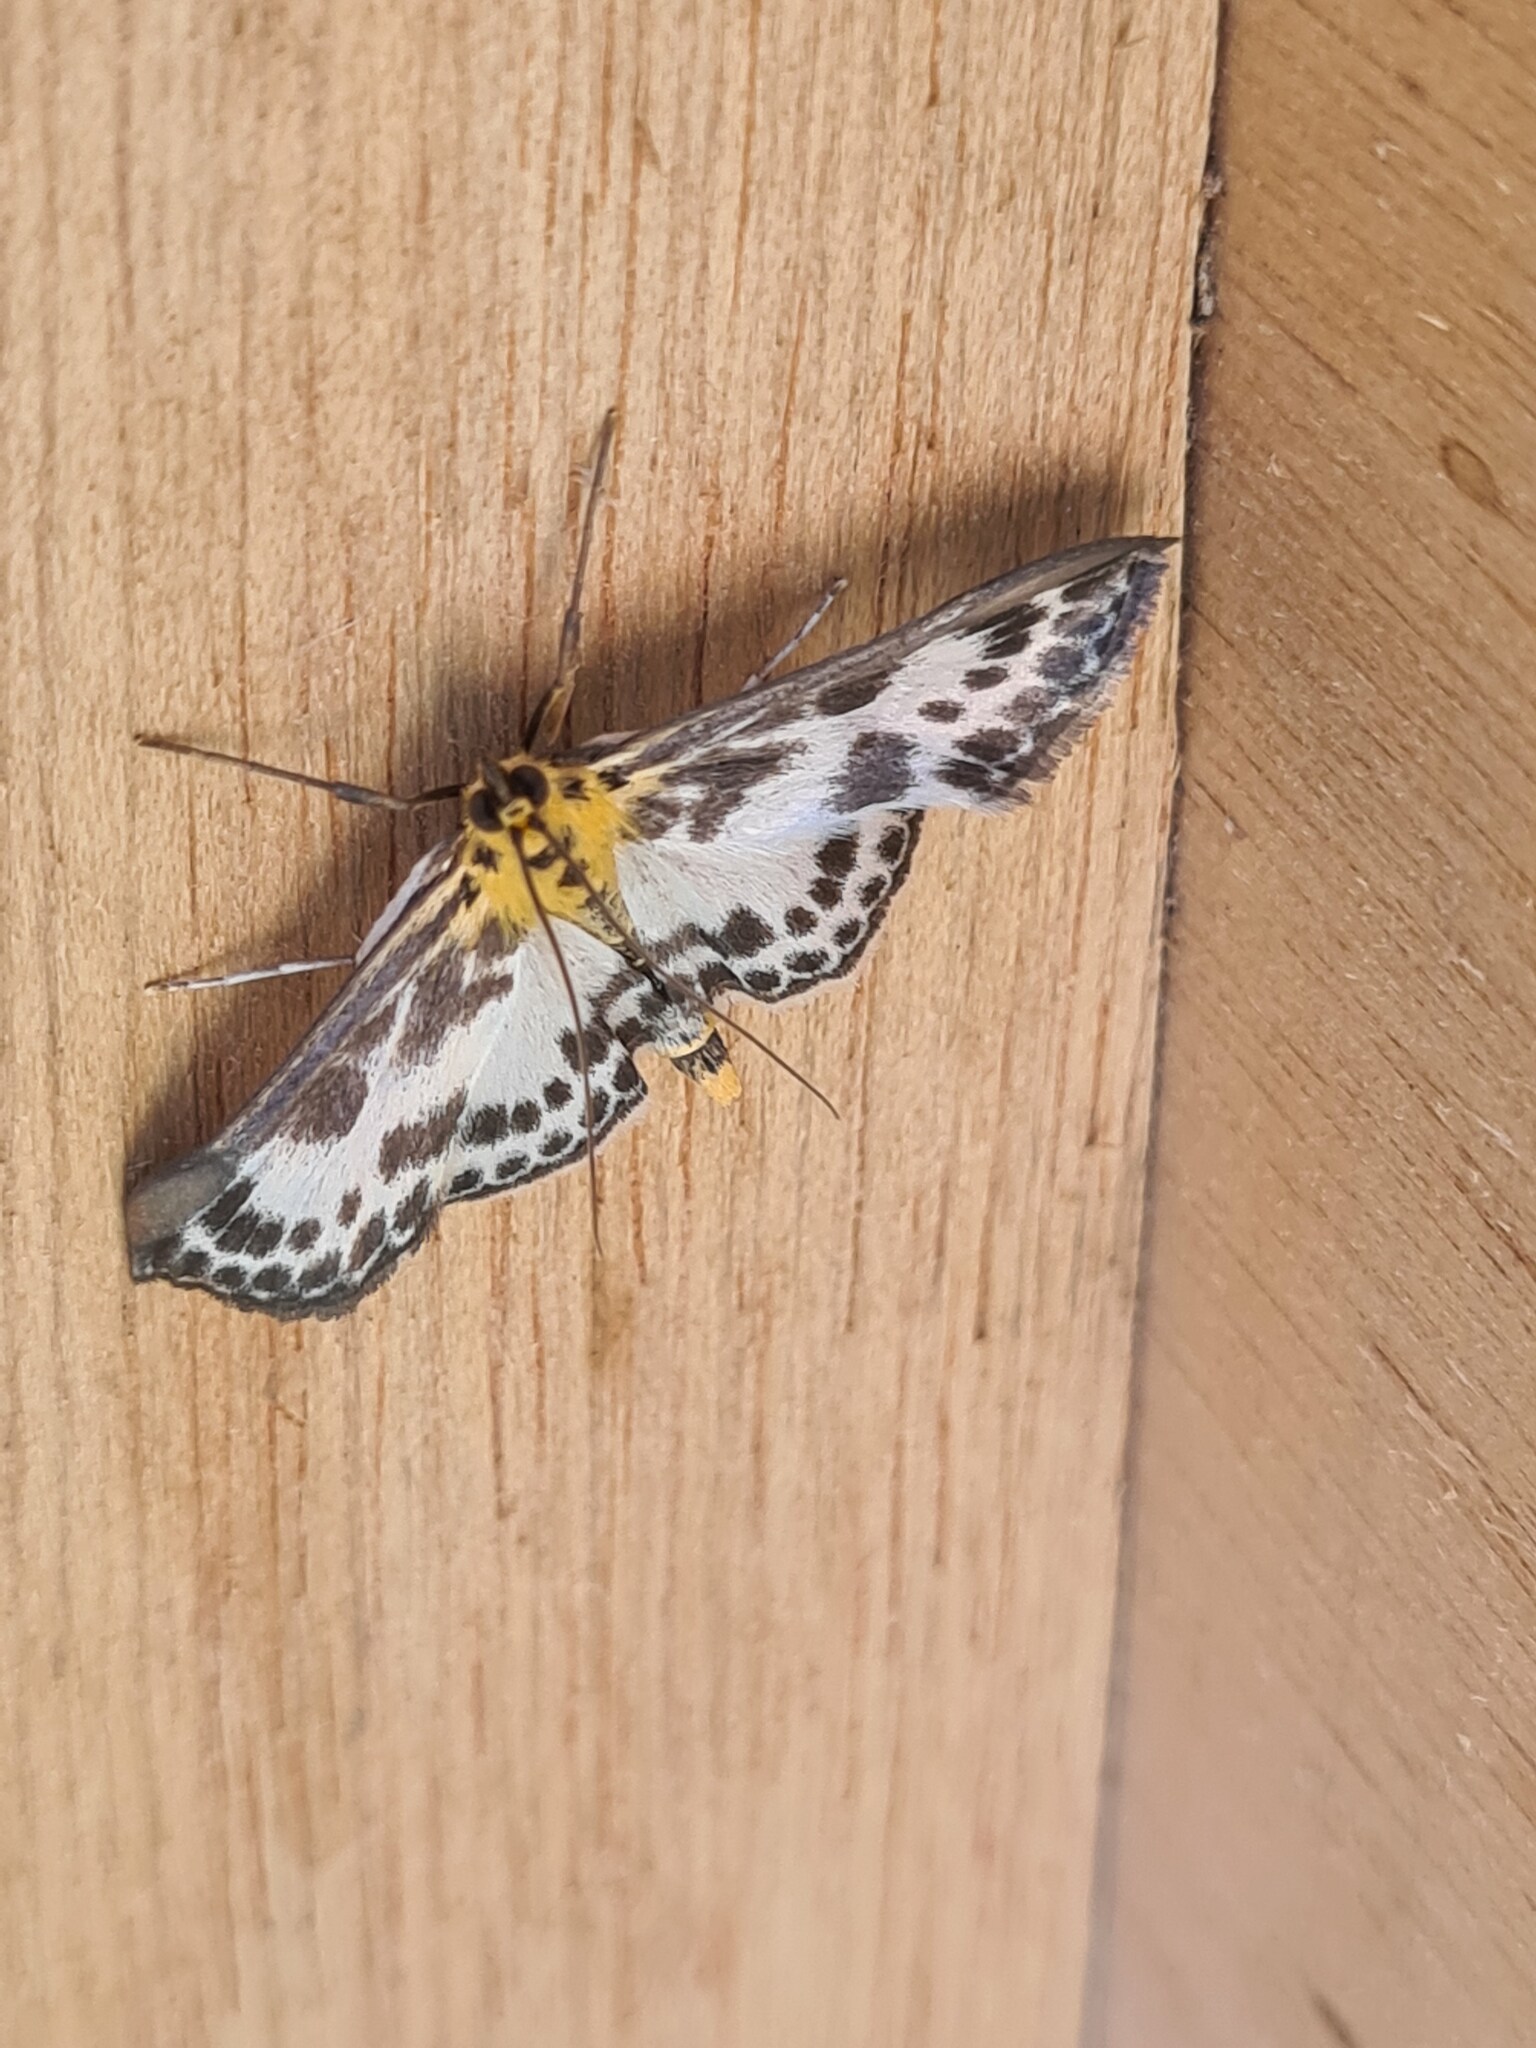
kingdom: Animalia
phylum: Arthropoda
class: Insecta
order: Lepidoptera
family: Crambidae
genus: Anania
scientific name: Anania hortulata
